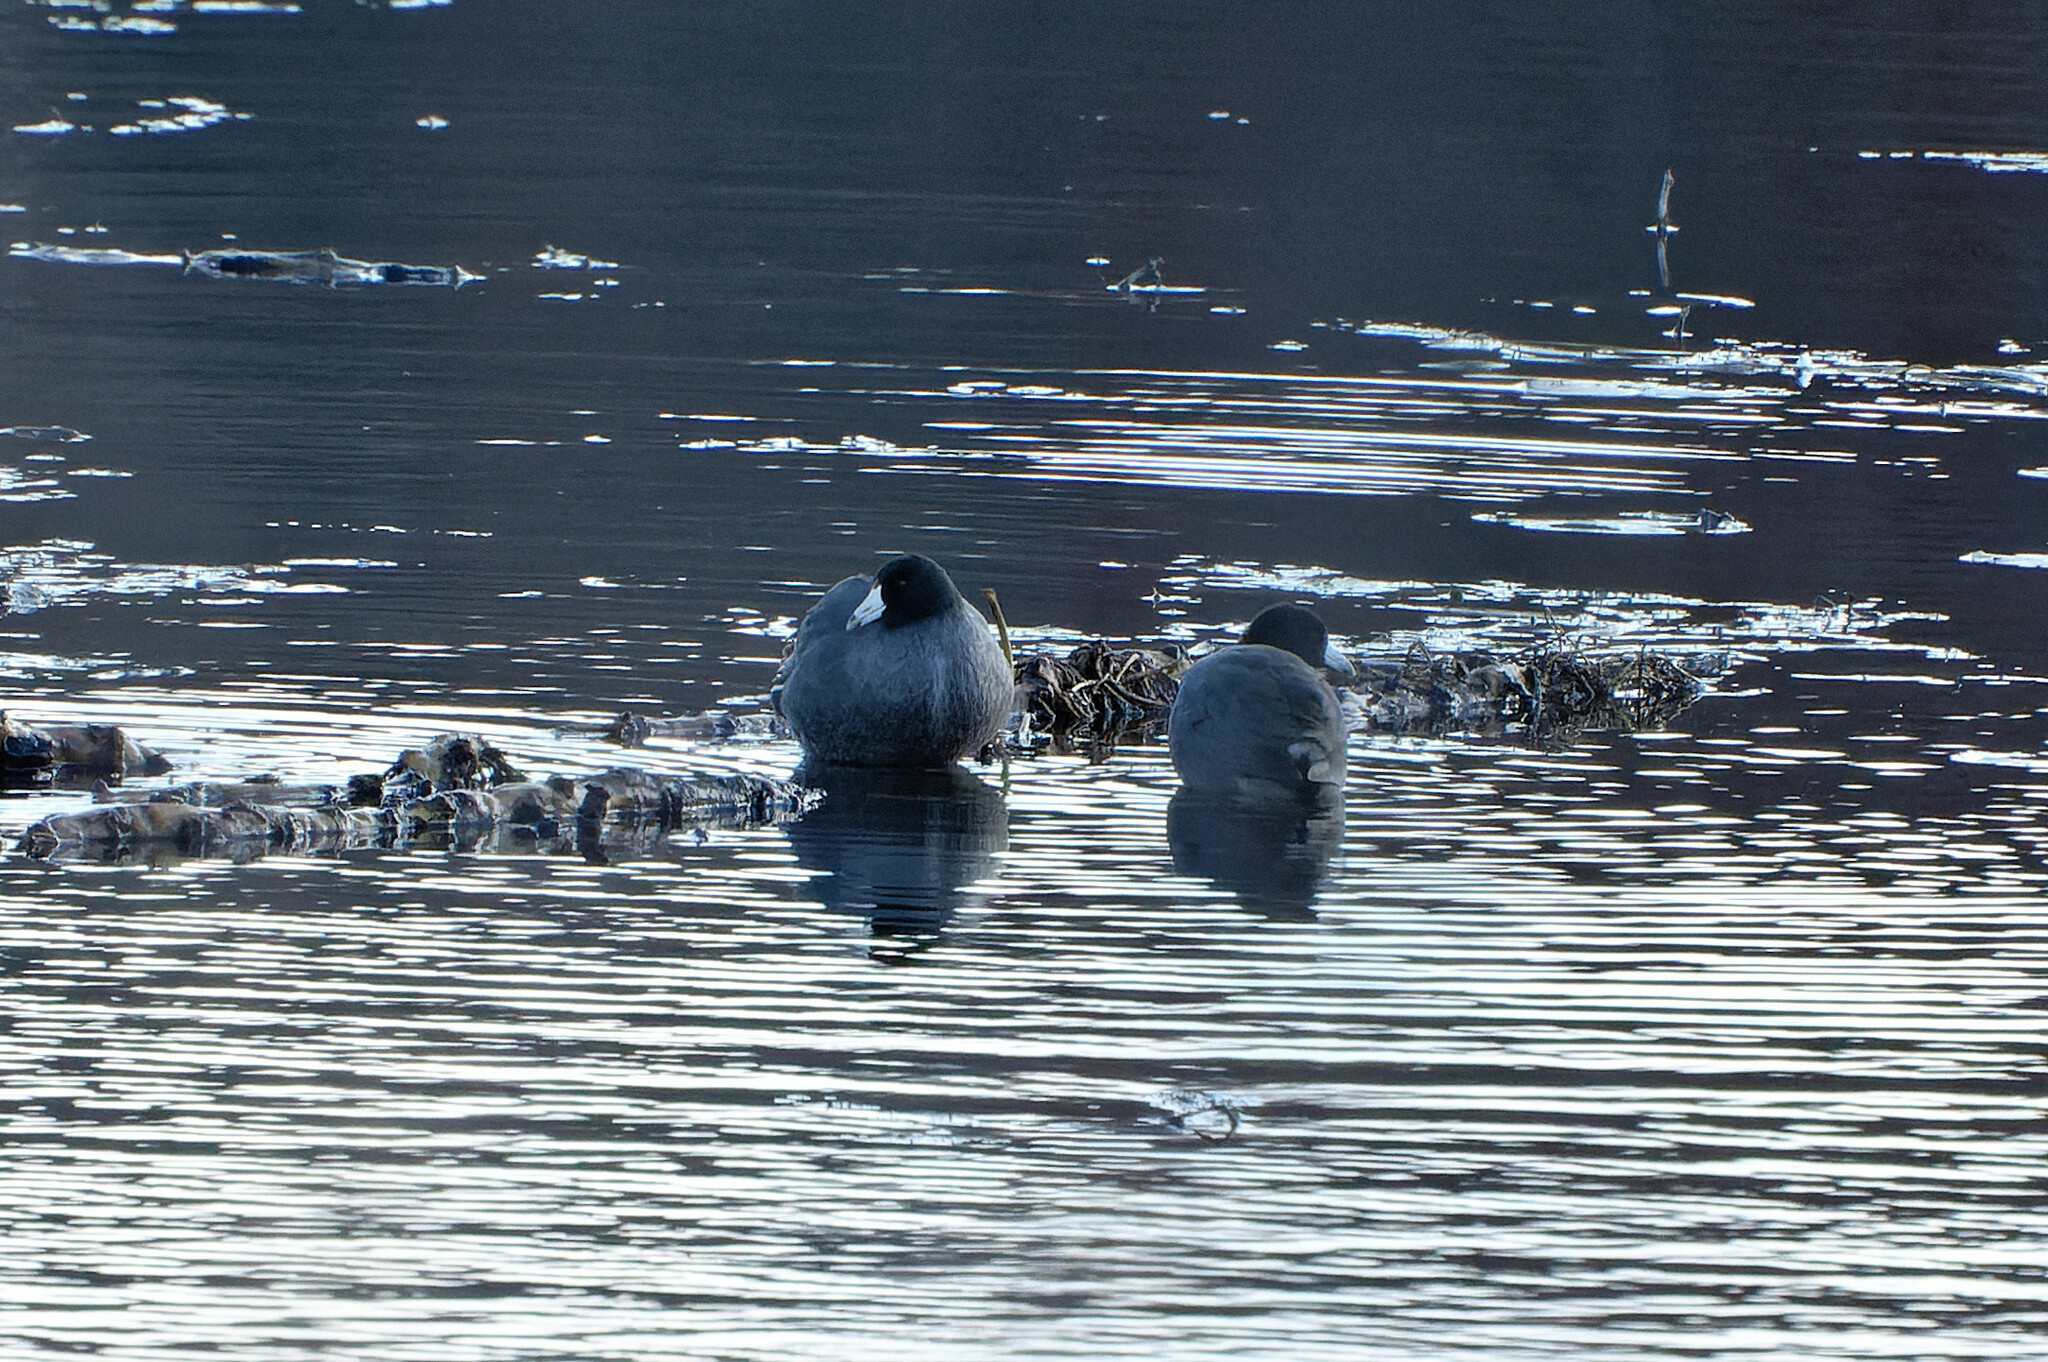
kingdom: Animalia
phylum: Chordata
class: Aves
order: Gruiformes
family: Rallidae
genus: Fulica
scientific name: Fulica americana
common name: American coot
